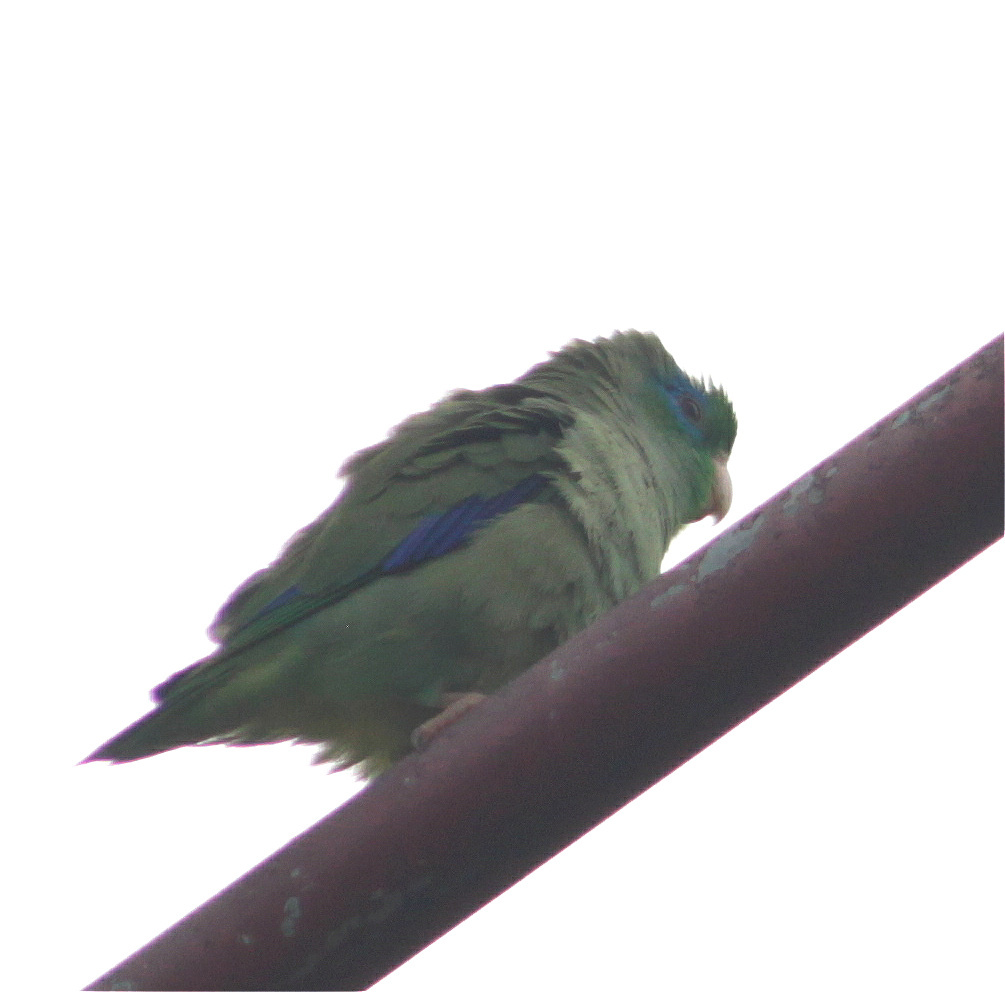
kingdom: Animalia
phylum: Chordata
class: Aves
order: Psittaciformes
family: Psittacidae
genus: Forpus
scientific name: Forpus conspicillatus
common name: Spectacled parrotlet
